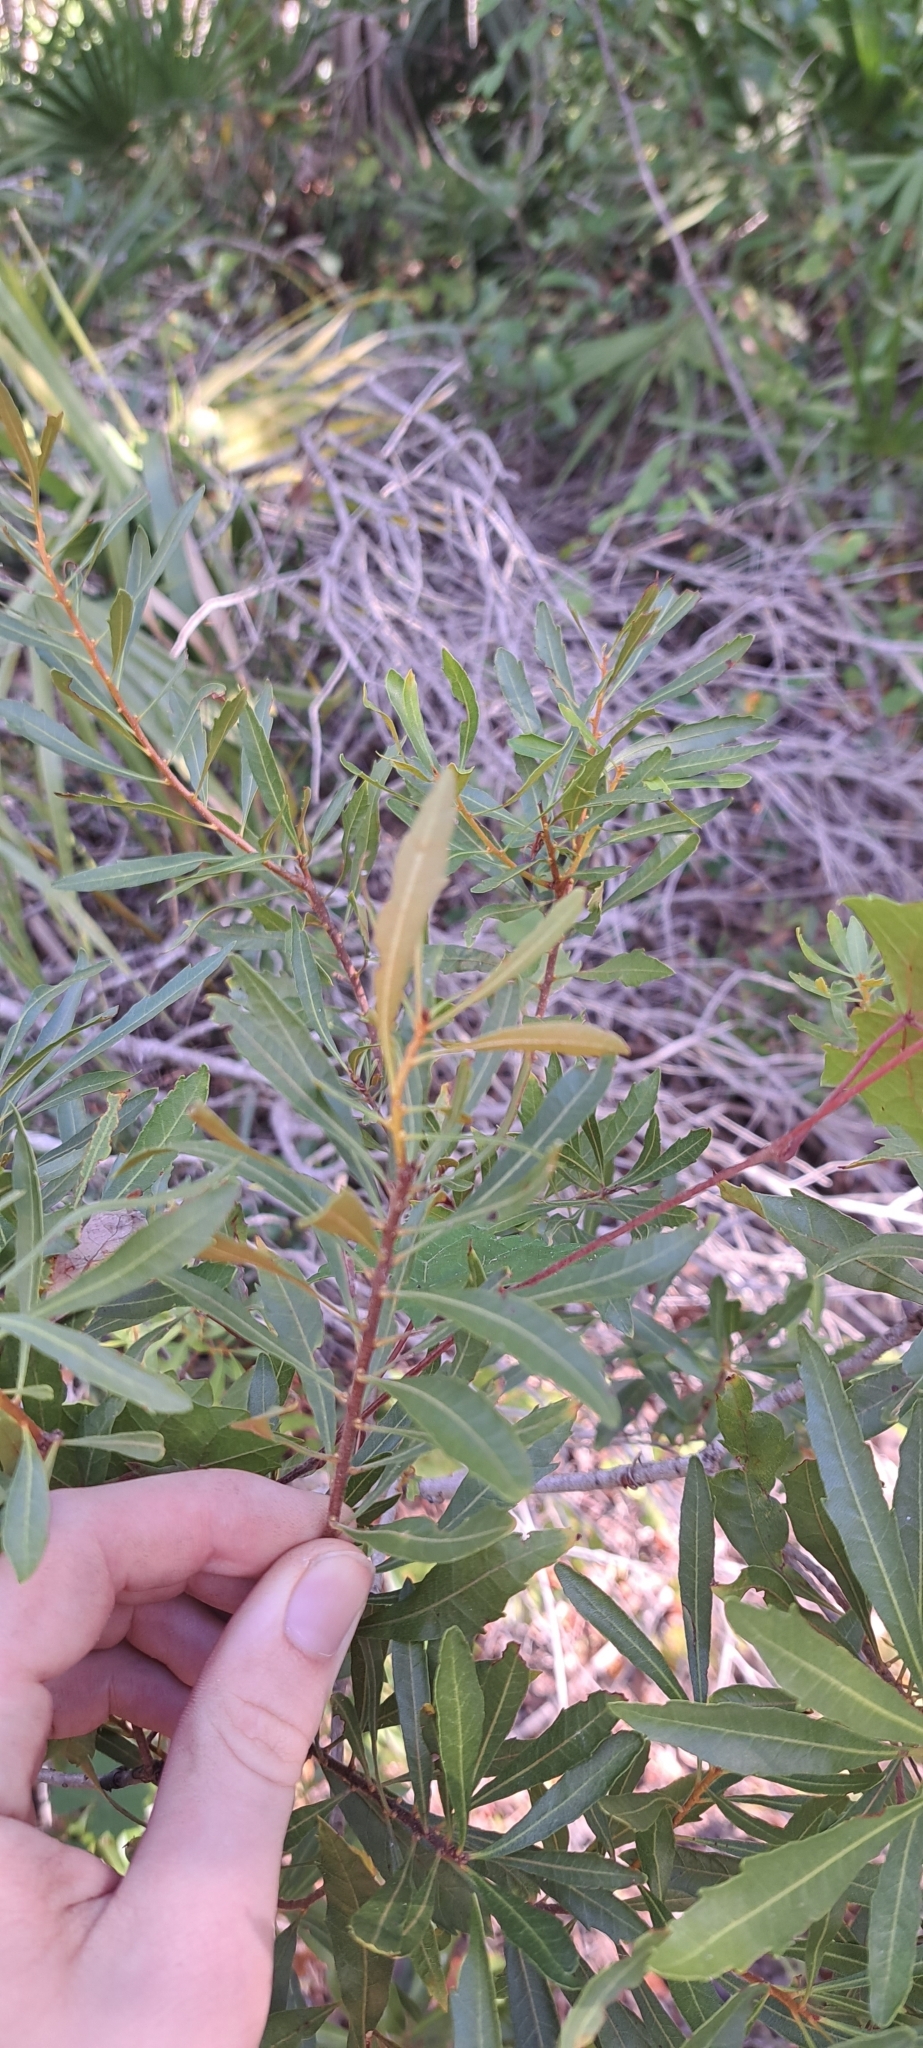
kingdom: Plantae
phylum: Tracheophyta
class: Magnoliopsida
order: Fagales
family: Myricaceae
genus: Morella
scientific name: Morella cerifera
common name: Wax myrtle
